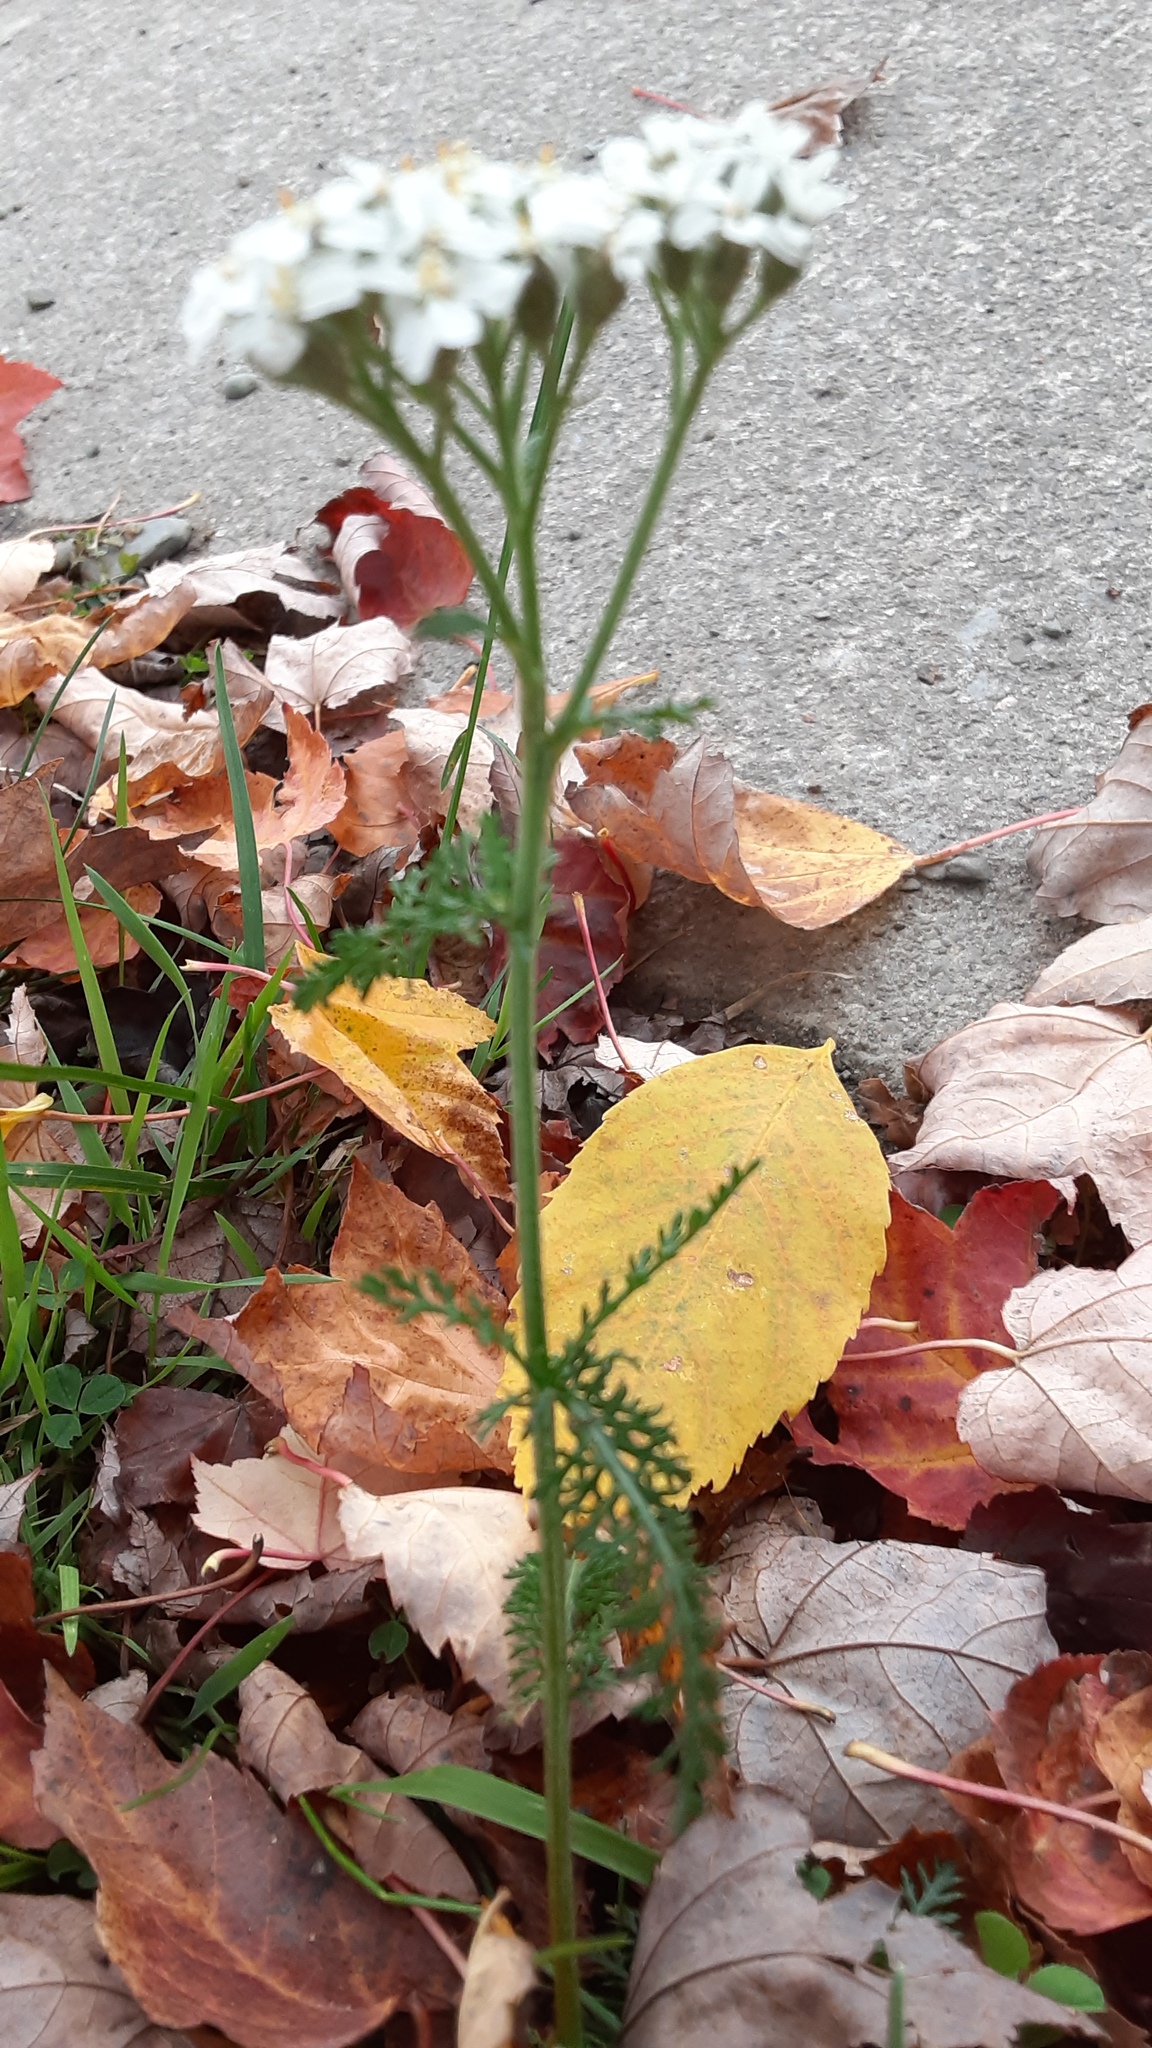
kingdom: Plantae
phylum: Tracheophyta
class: Magnoliopsida
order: Asterales
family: Asteraceae
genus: Achillea
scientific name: Achillea millefolium
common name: Yarrow
